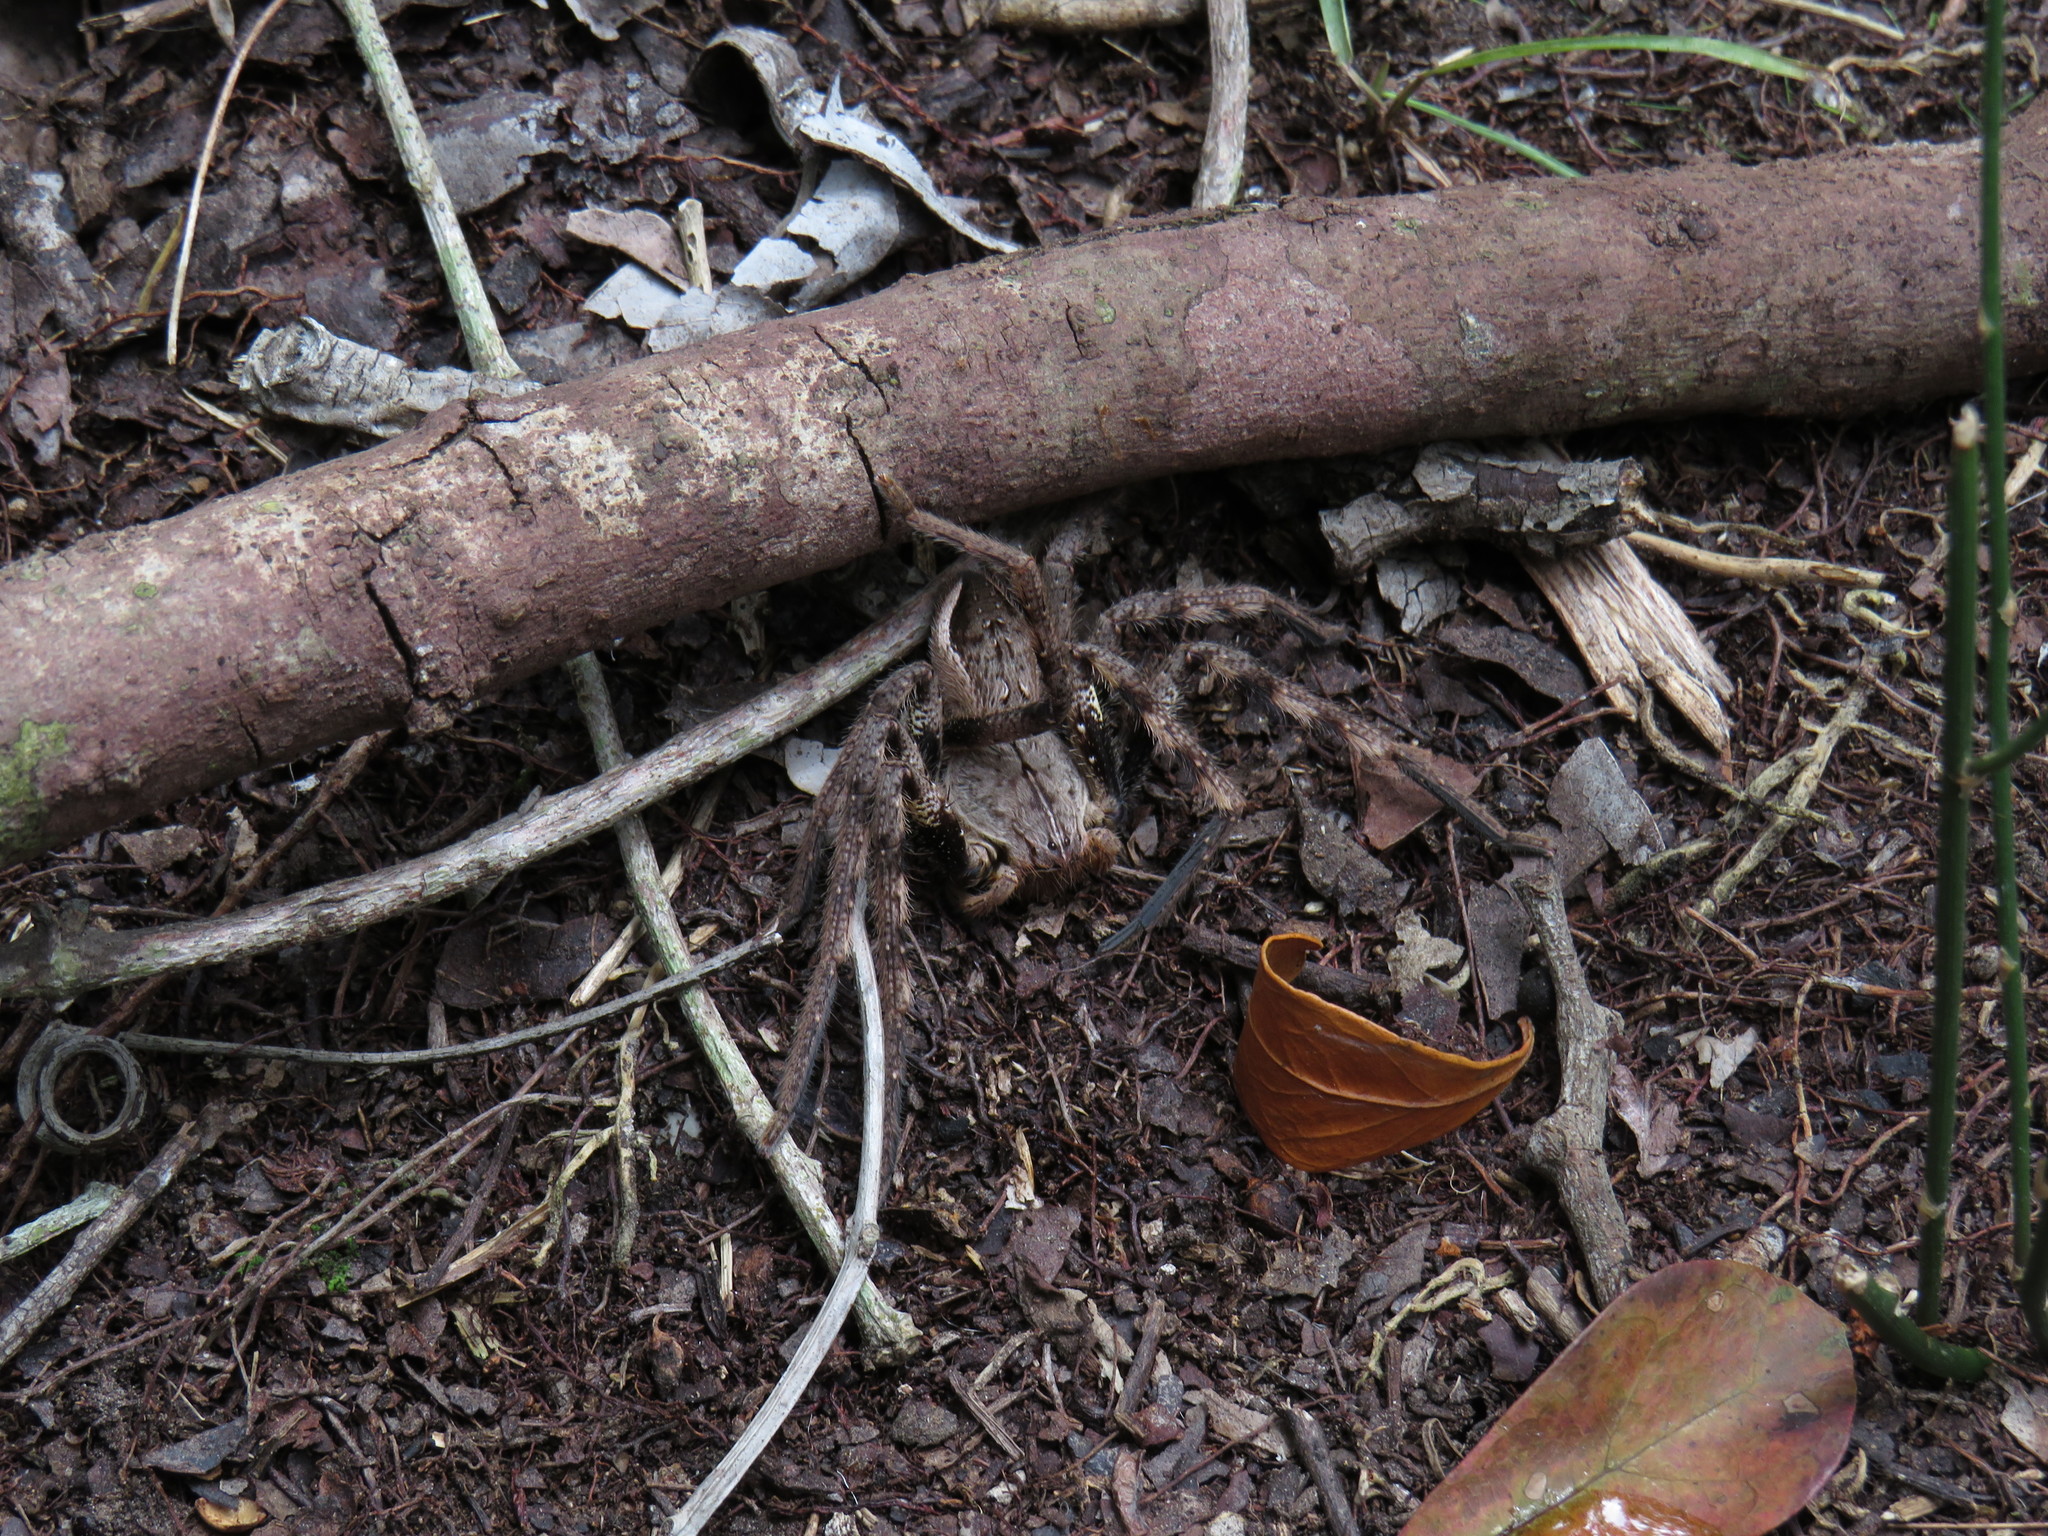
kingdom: Animalia
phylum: Arthropoda
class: Arachnida
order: Araneae
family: Sparassidae
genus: Palystes
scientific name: Palystes superciliosus
